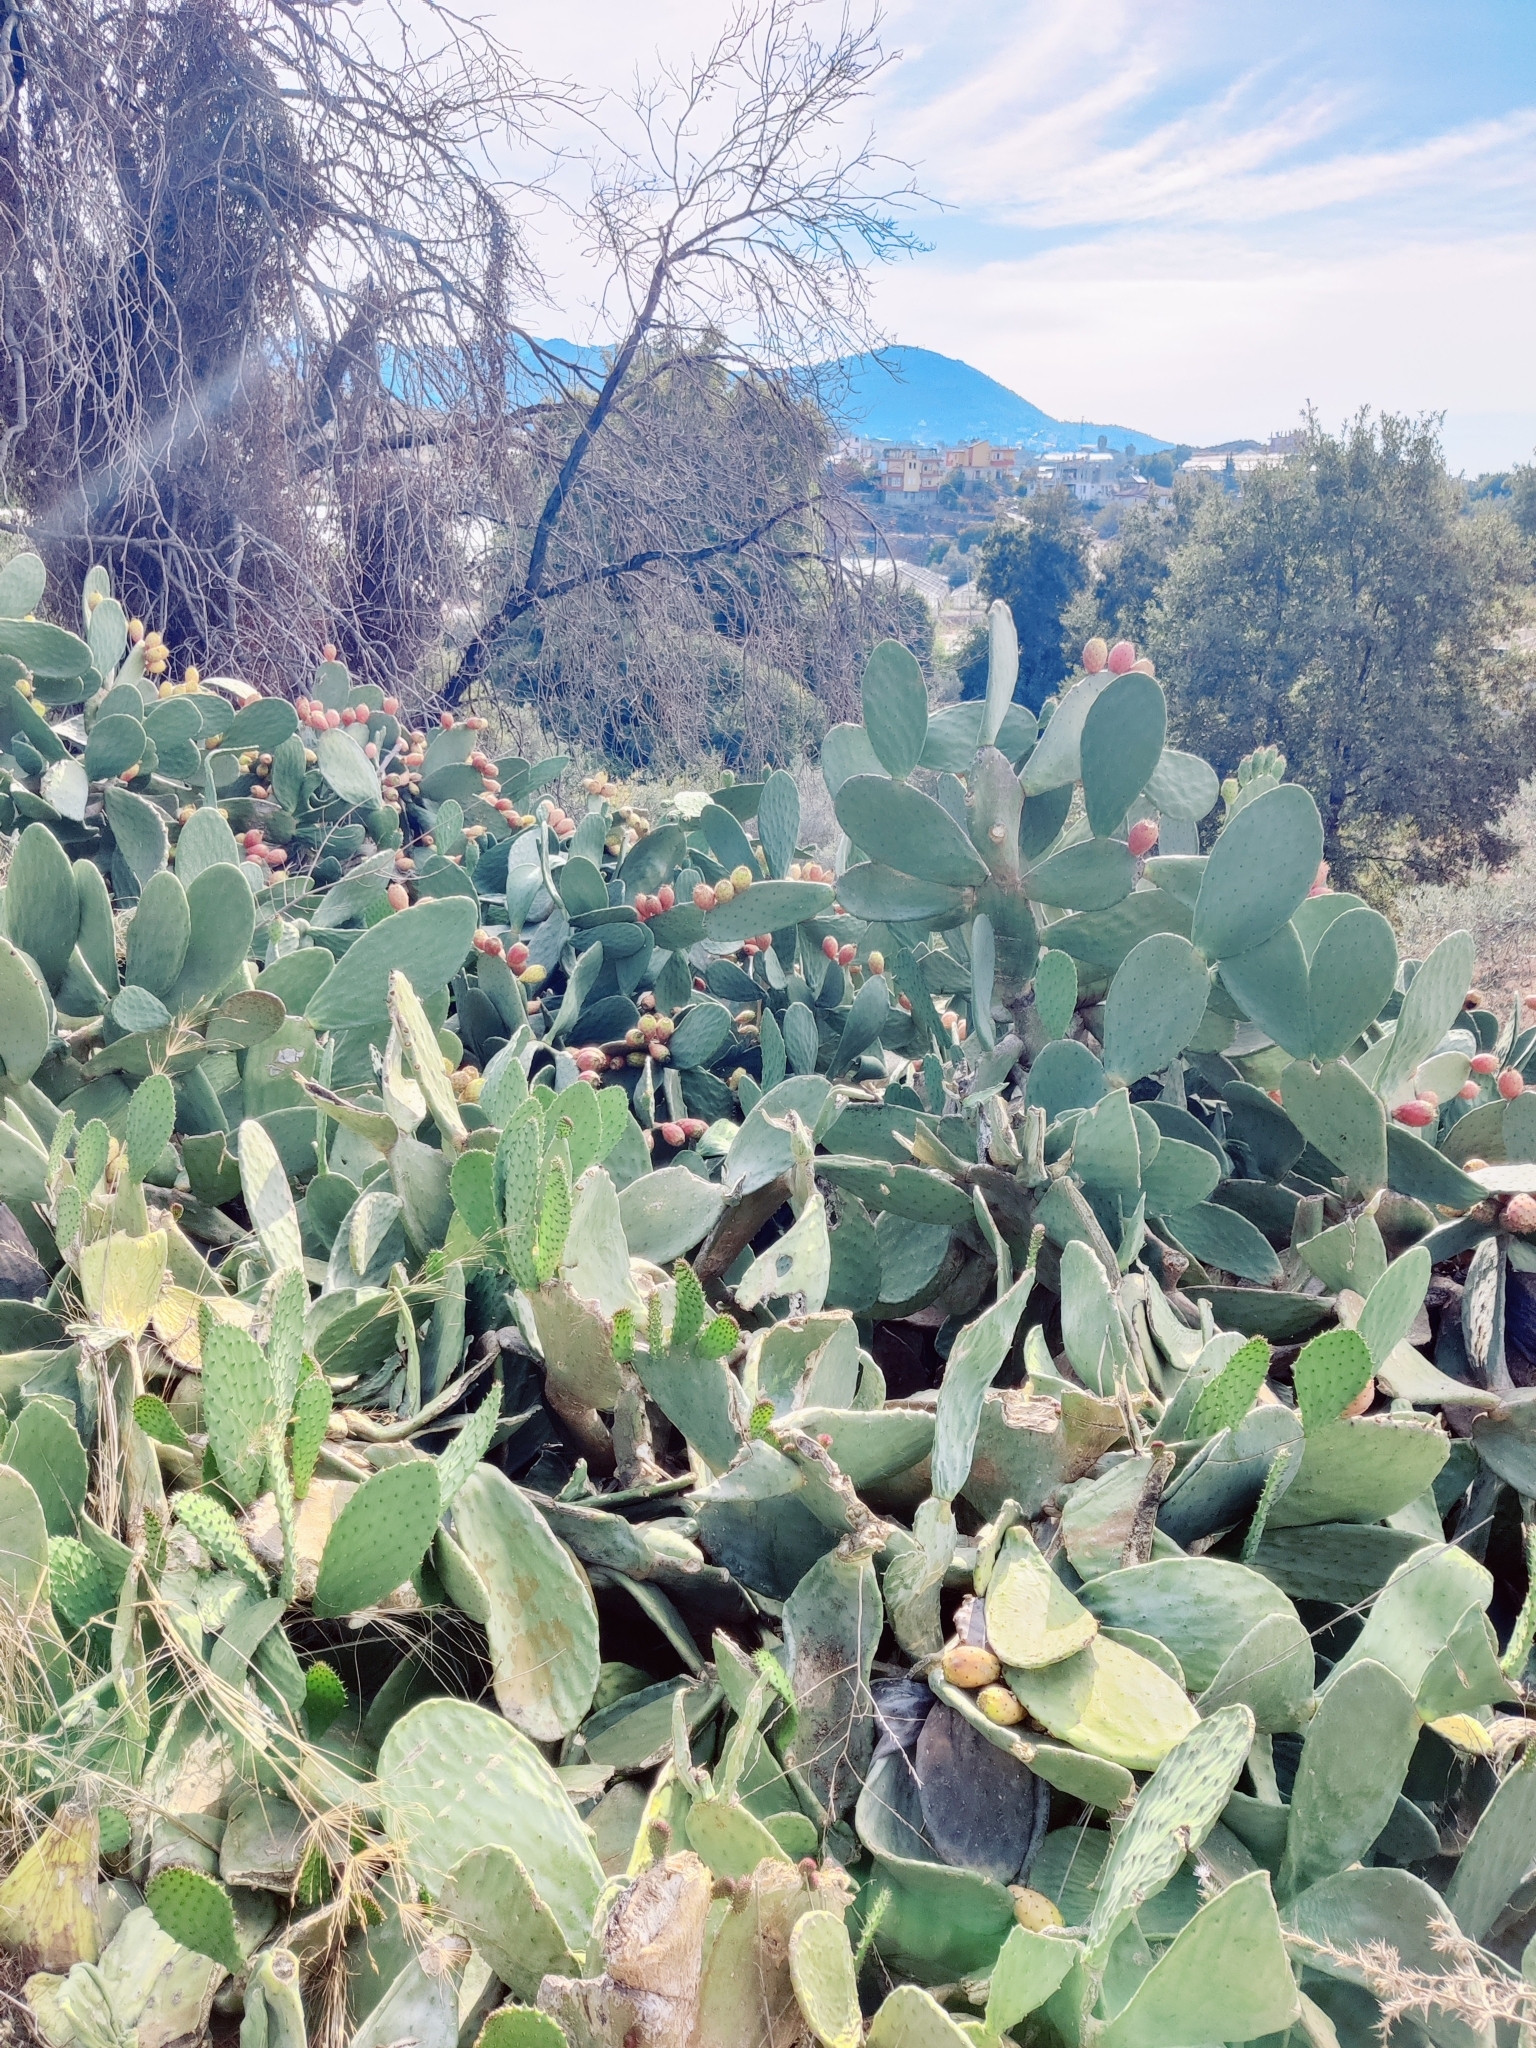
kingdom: Plantae
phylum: Tracheophyta
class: Magnoliopsida
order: Caryophyllales
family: Cactaceae
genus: Opuntia
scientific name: Opuntia ficus-indica
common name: Barbary fig
